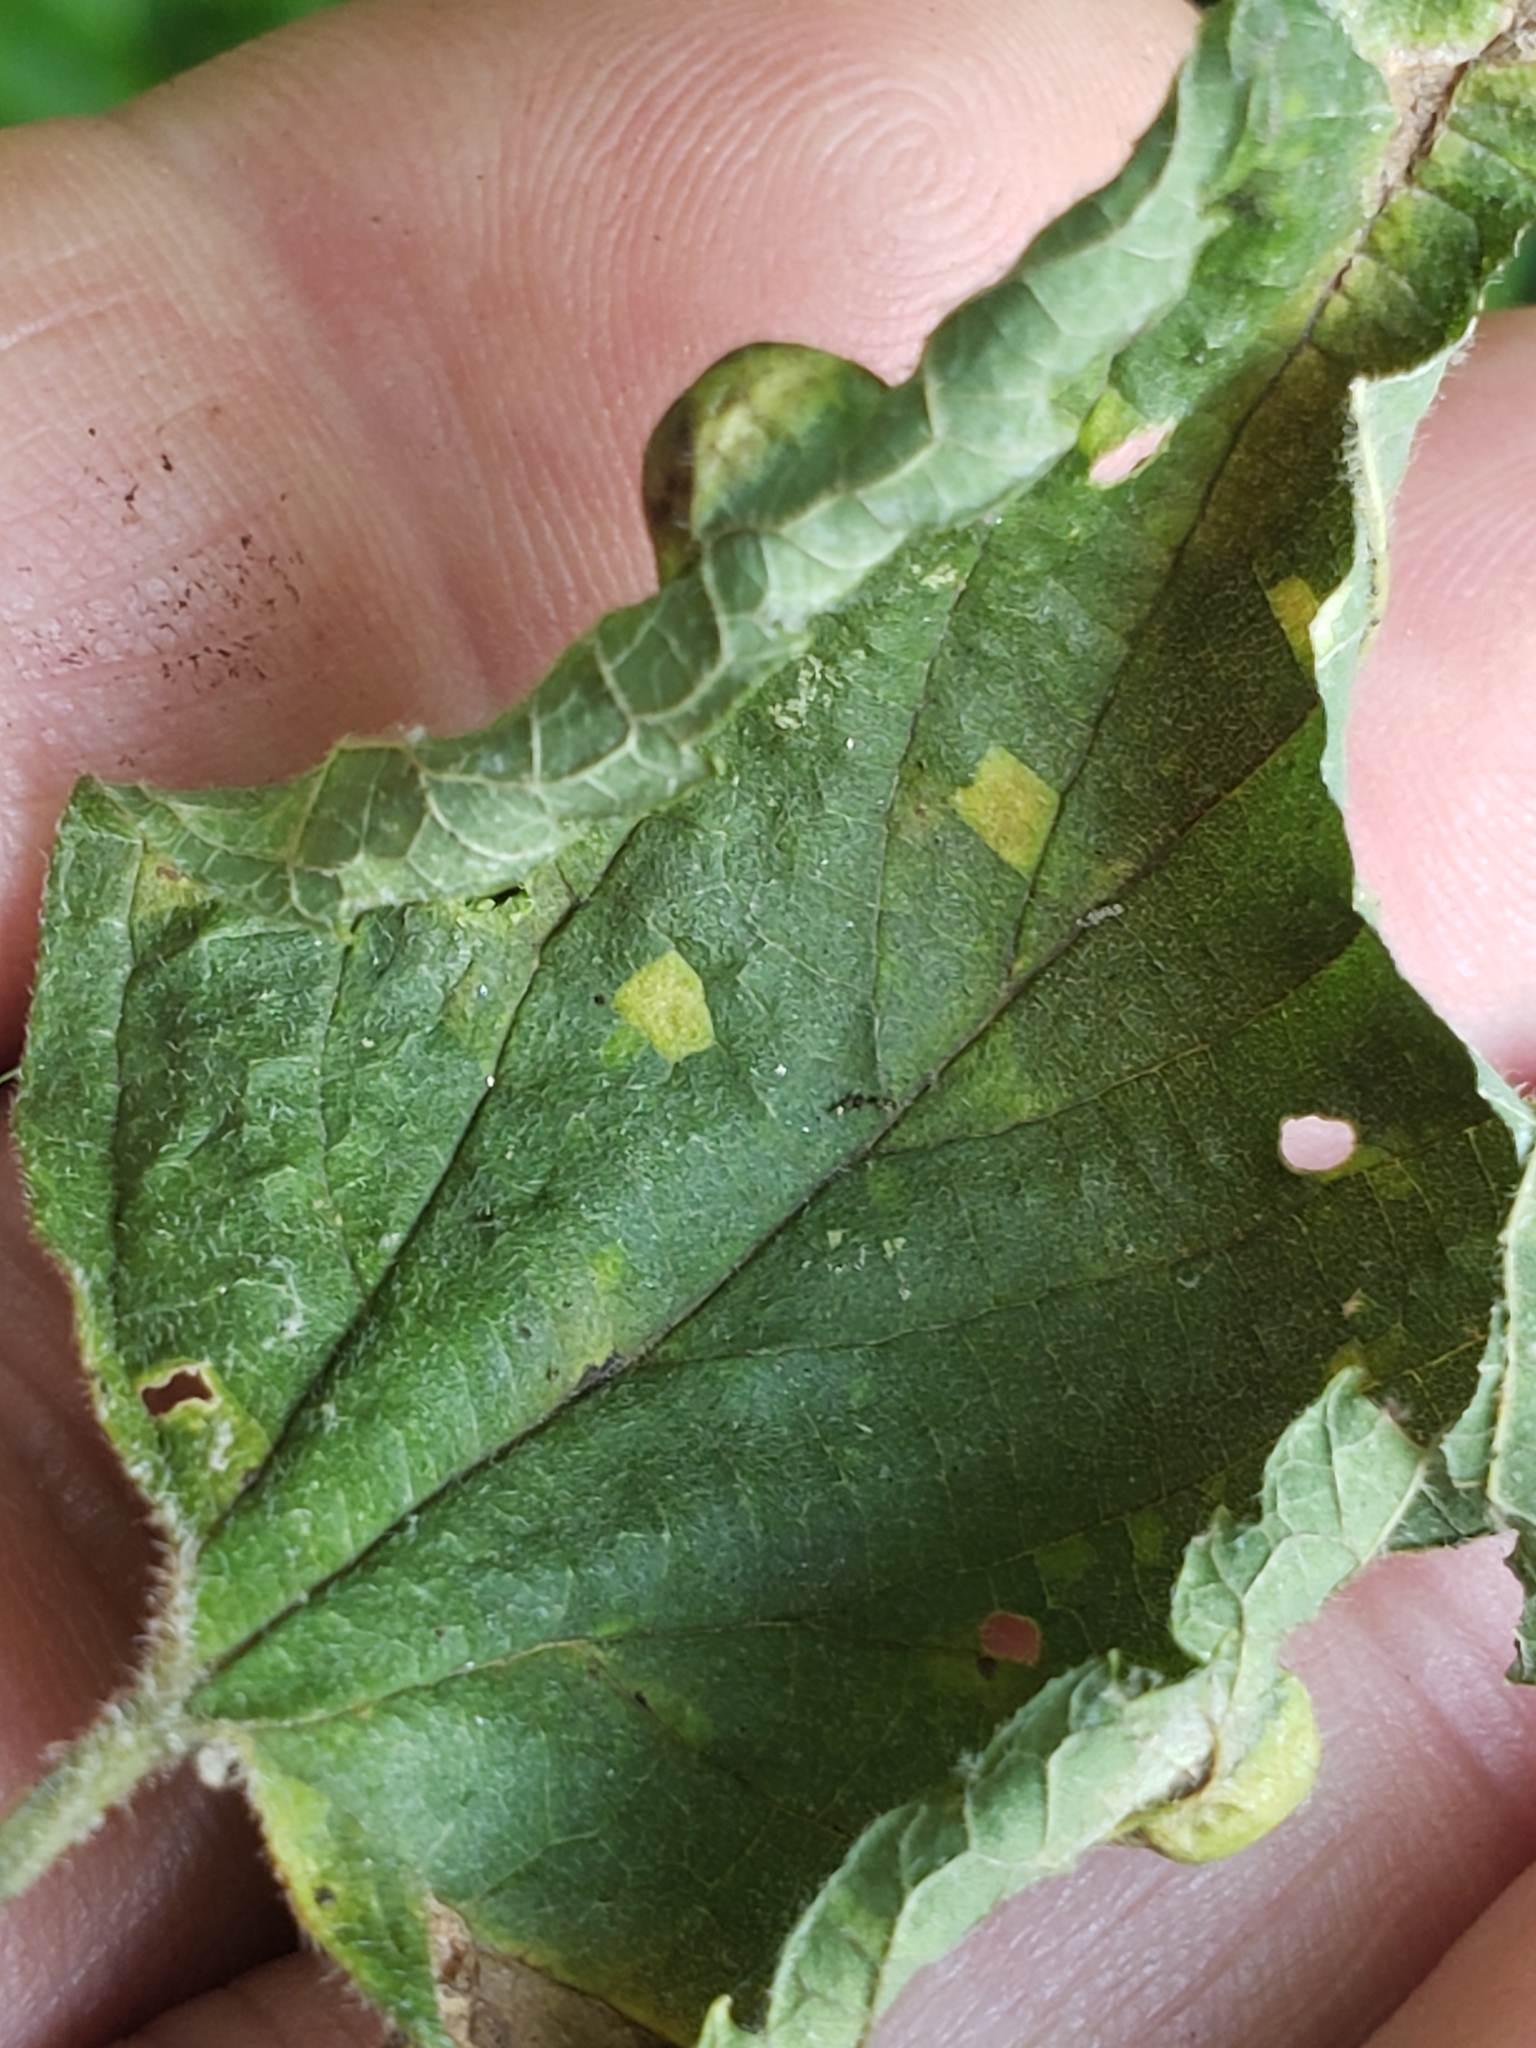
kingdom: Animalia
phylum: Arthropoda
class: Insecta
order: Hemiptera
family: Aphalaridae
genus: Pachypsylla
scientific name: Pachypsylla celtidismamma
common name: Hackberry nipplegall psyllid
